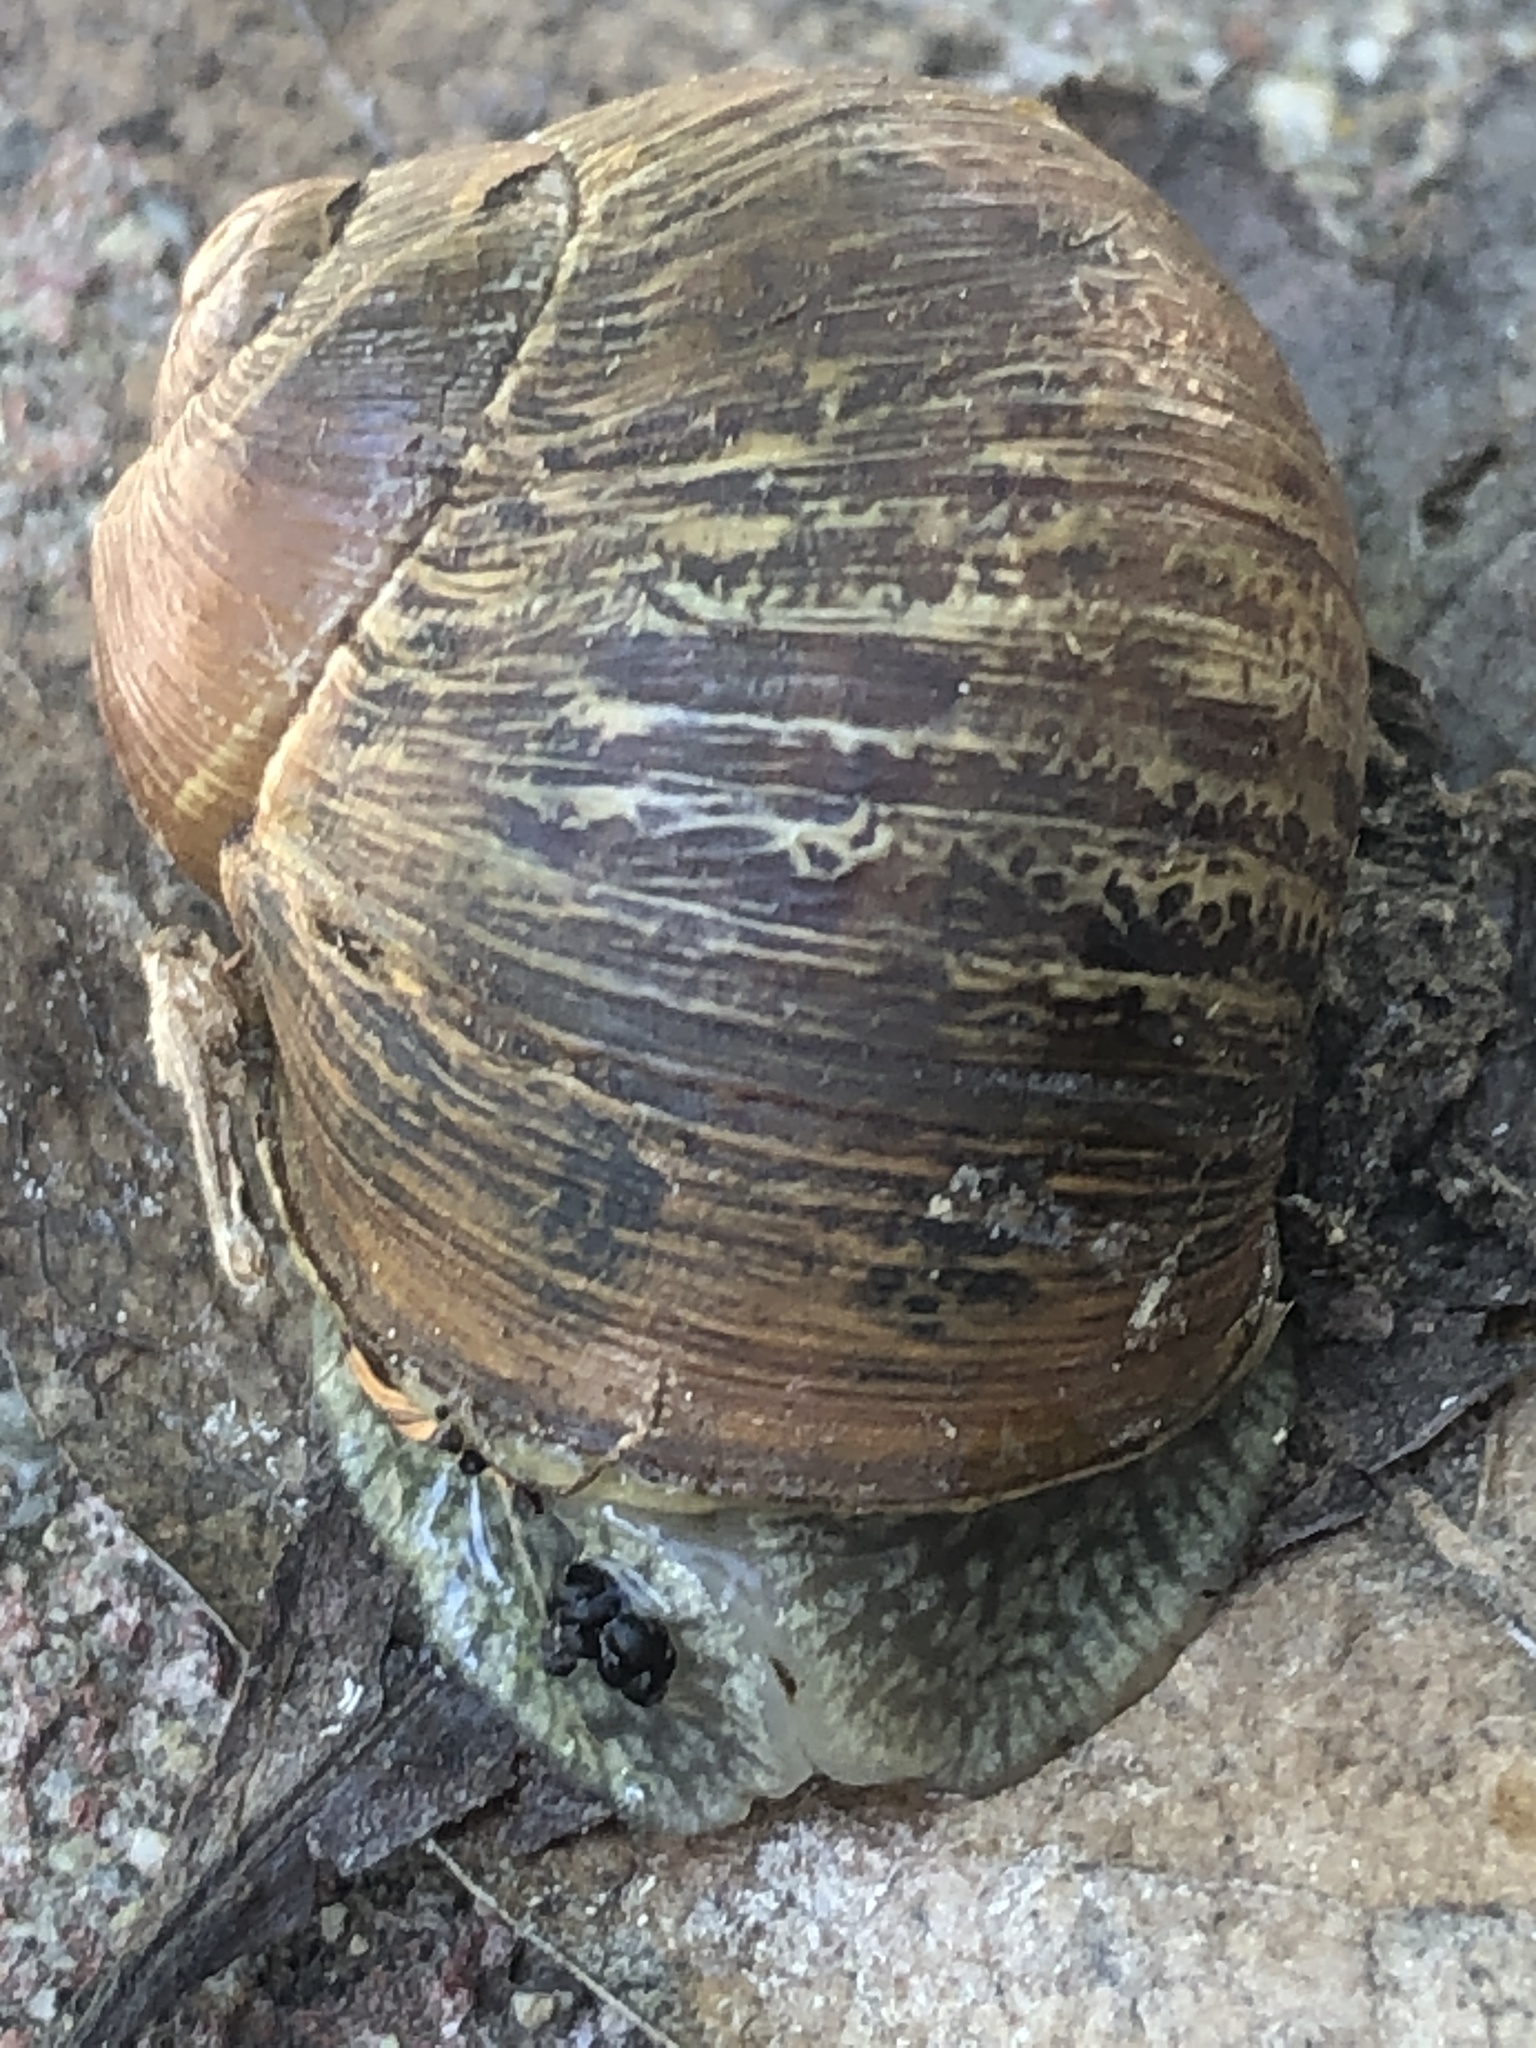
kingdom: Animalia
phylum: Mollusca
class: Gastropoda
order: Stylommatophora
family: Helicidae
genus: Cornu
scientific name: Cornu aspersum
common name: Brown garden snail
